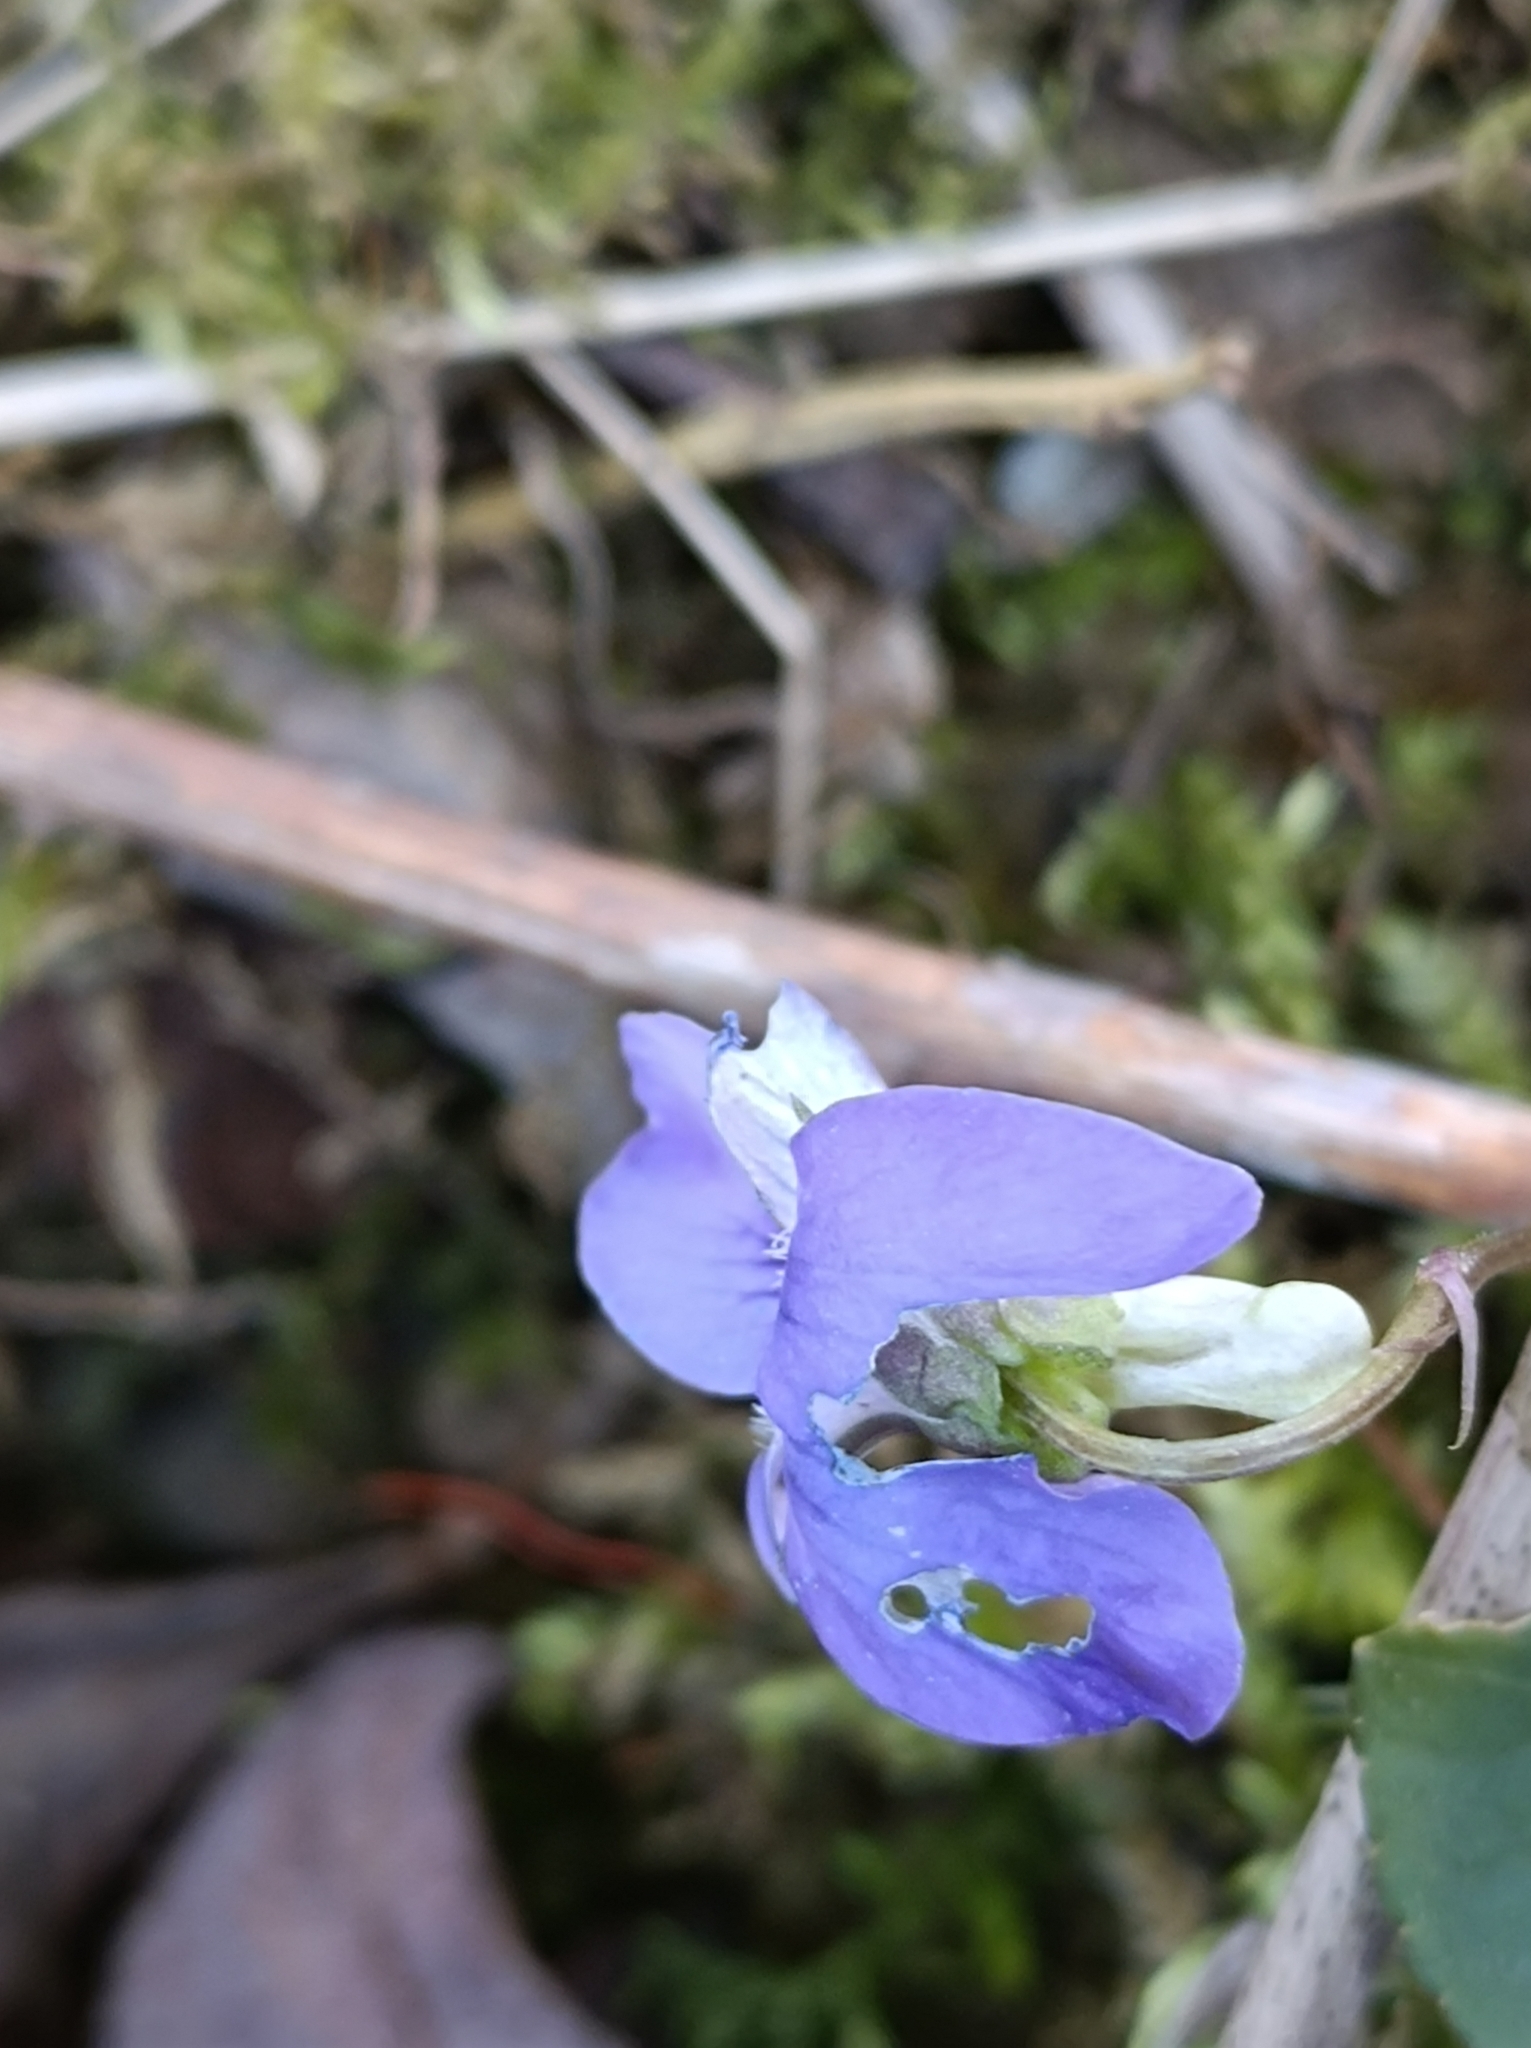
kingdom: Plantae
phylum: Tracheophyta
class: Magnoliopsida
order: Malpighiales
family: Violaceae
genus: Viola
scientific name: Viola riviniana
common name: Common dog-violet
